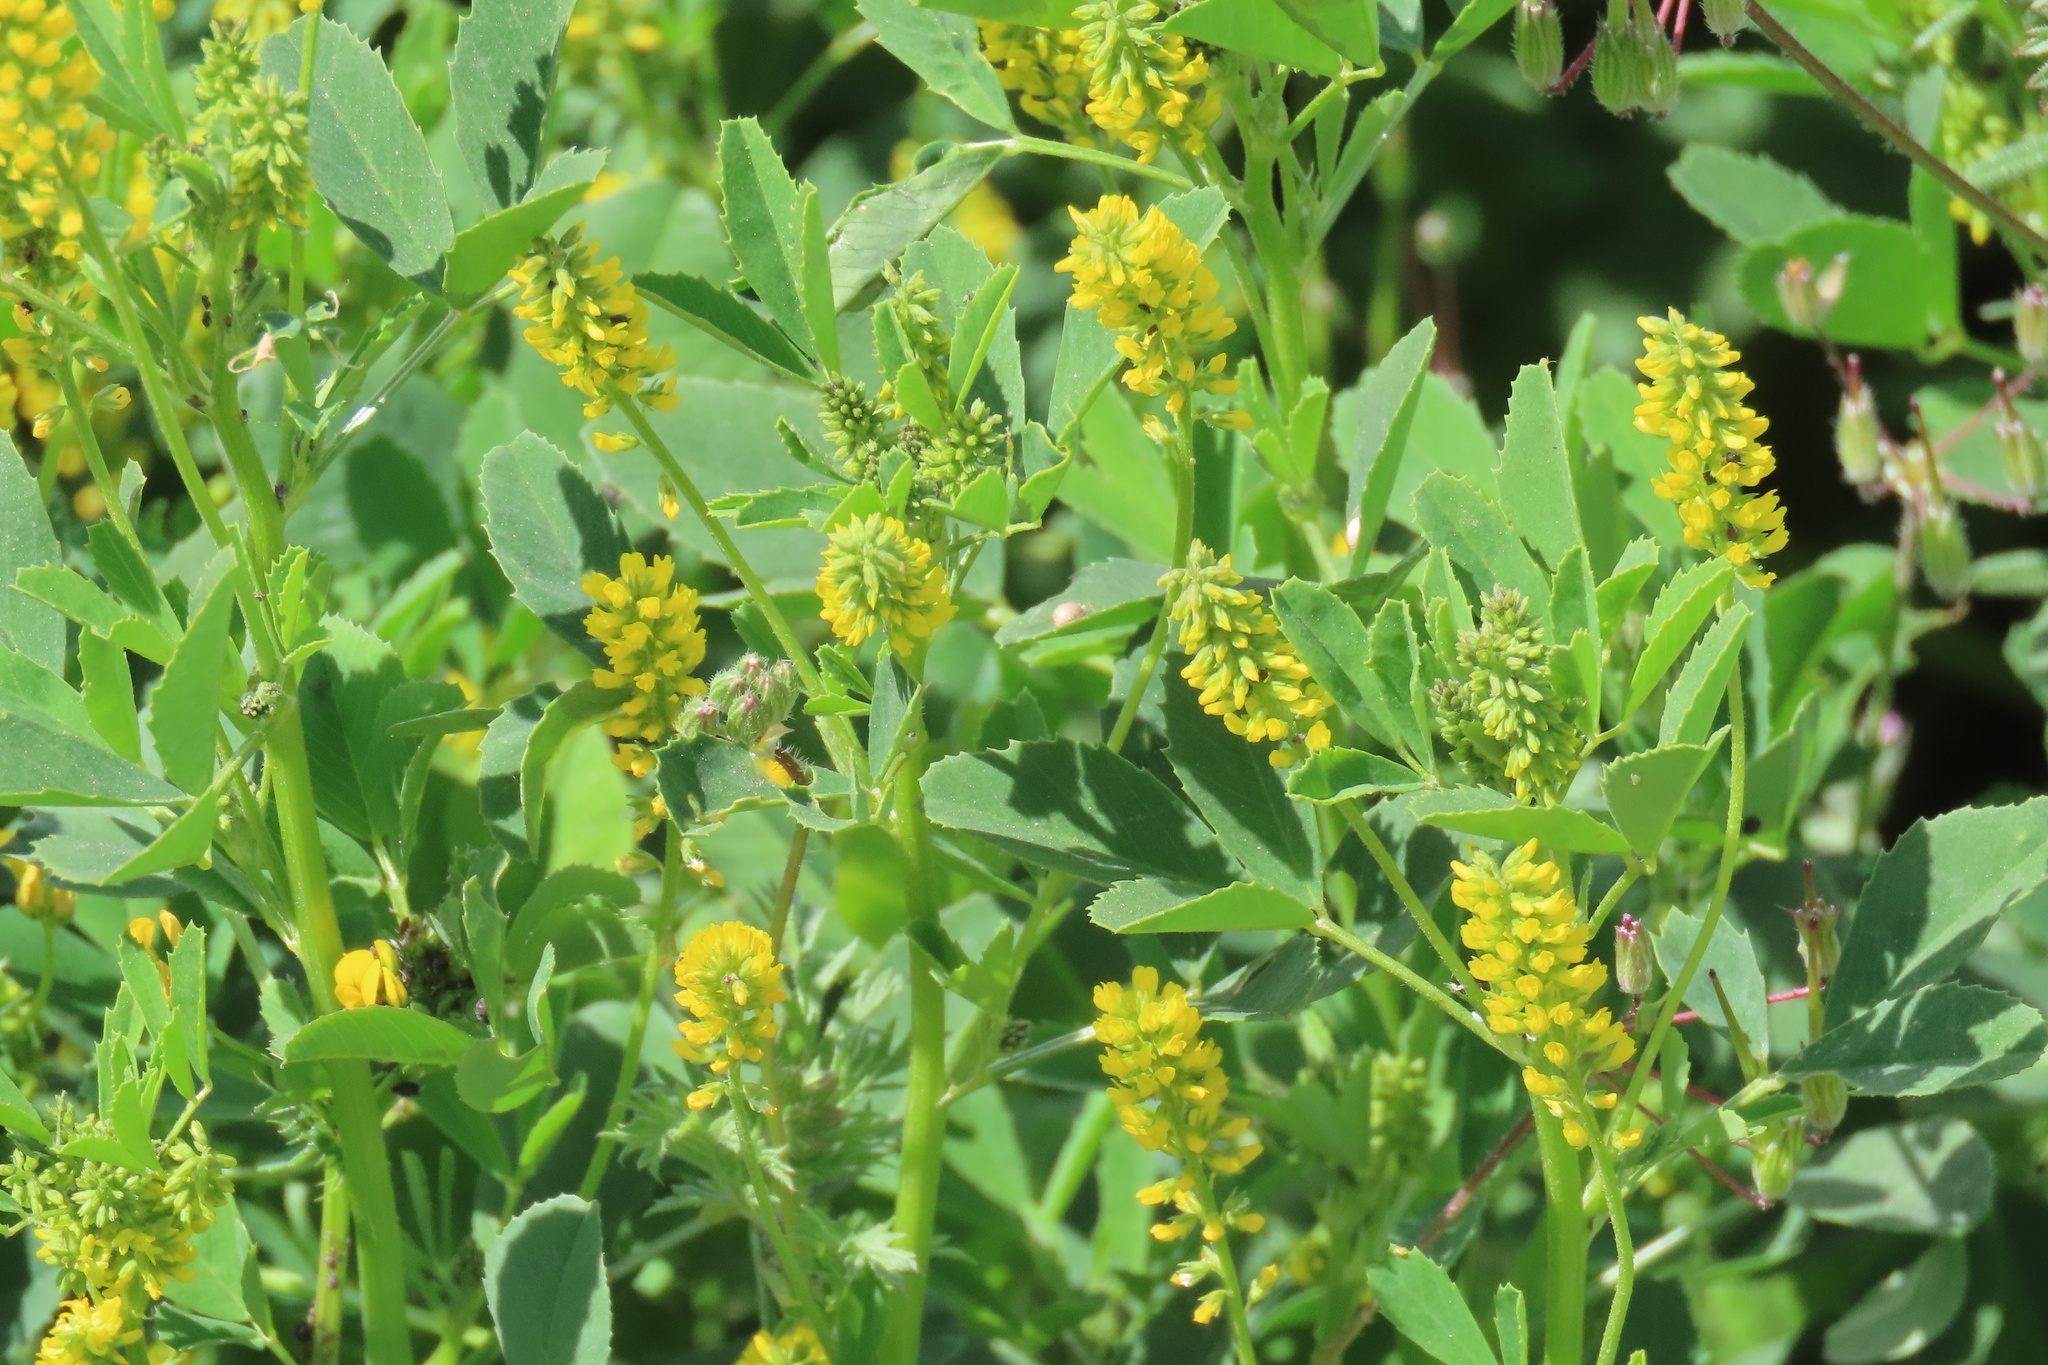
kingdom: Plantae
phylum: Tracheophyta
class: Magnoliopsida
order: Fabales
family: Fabaceae
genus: Melilotus
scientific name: Melilotus indicus
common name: Small melilot
